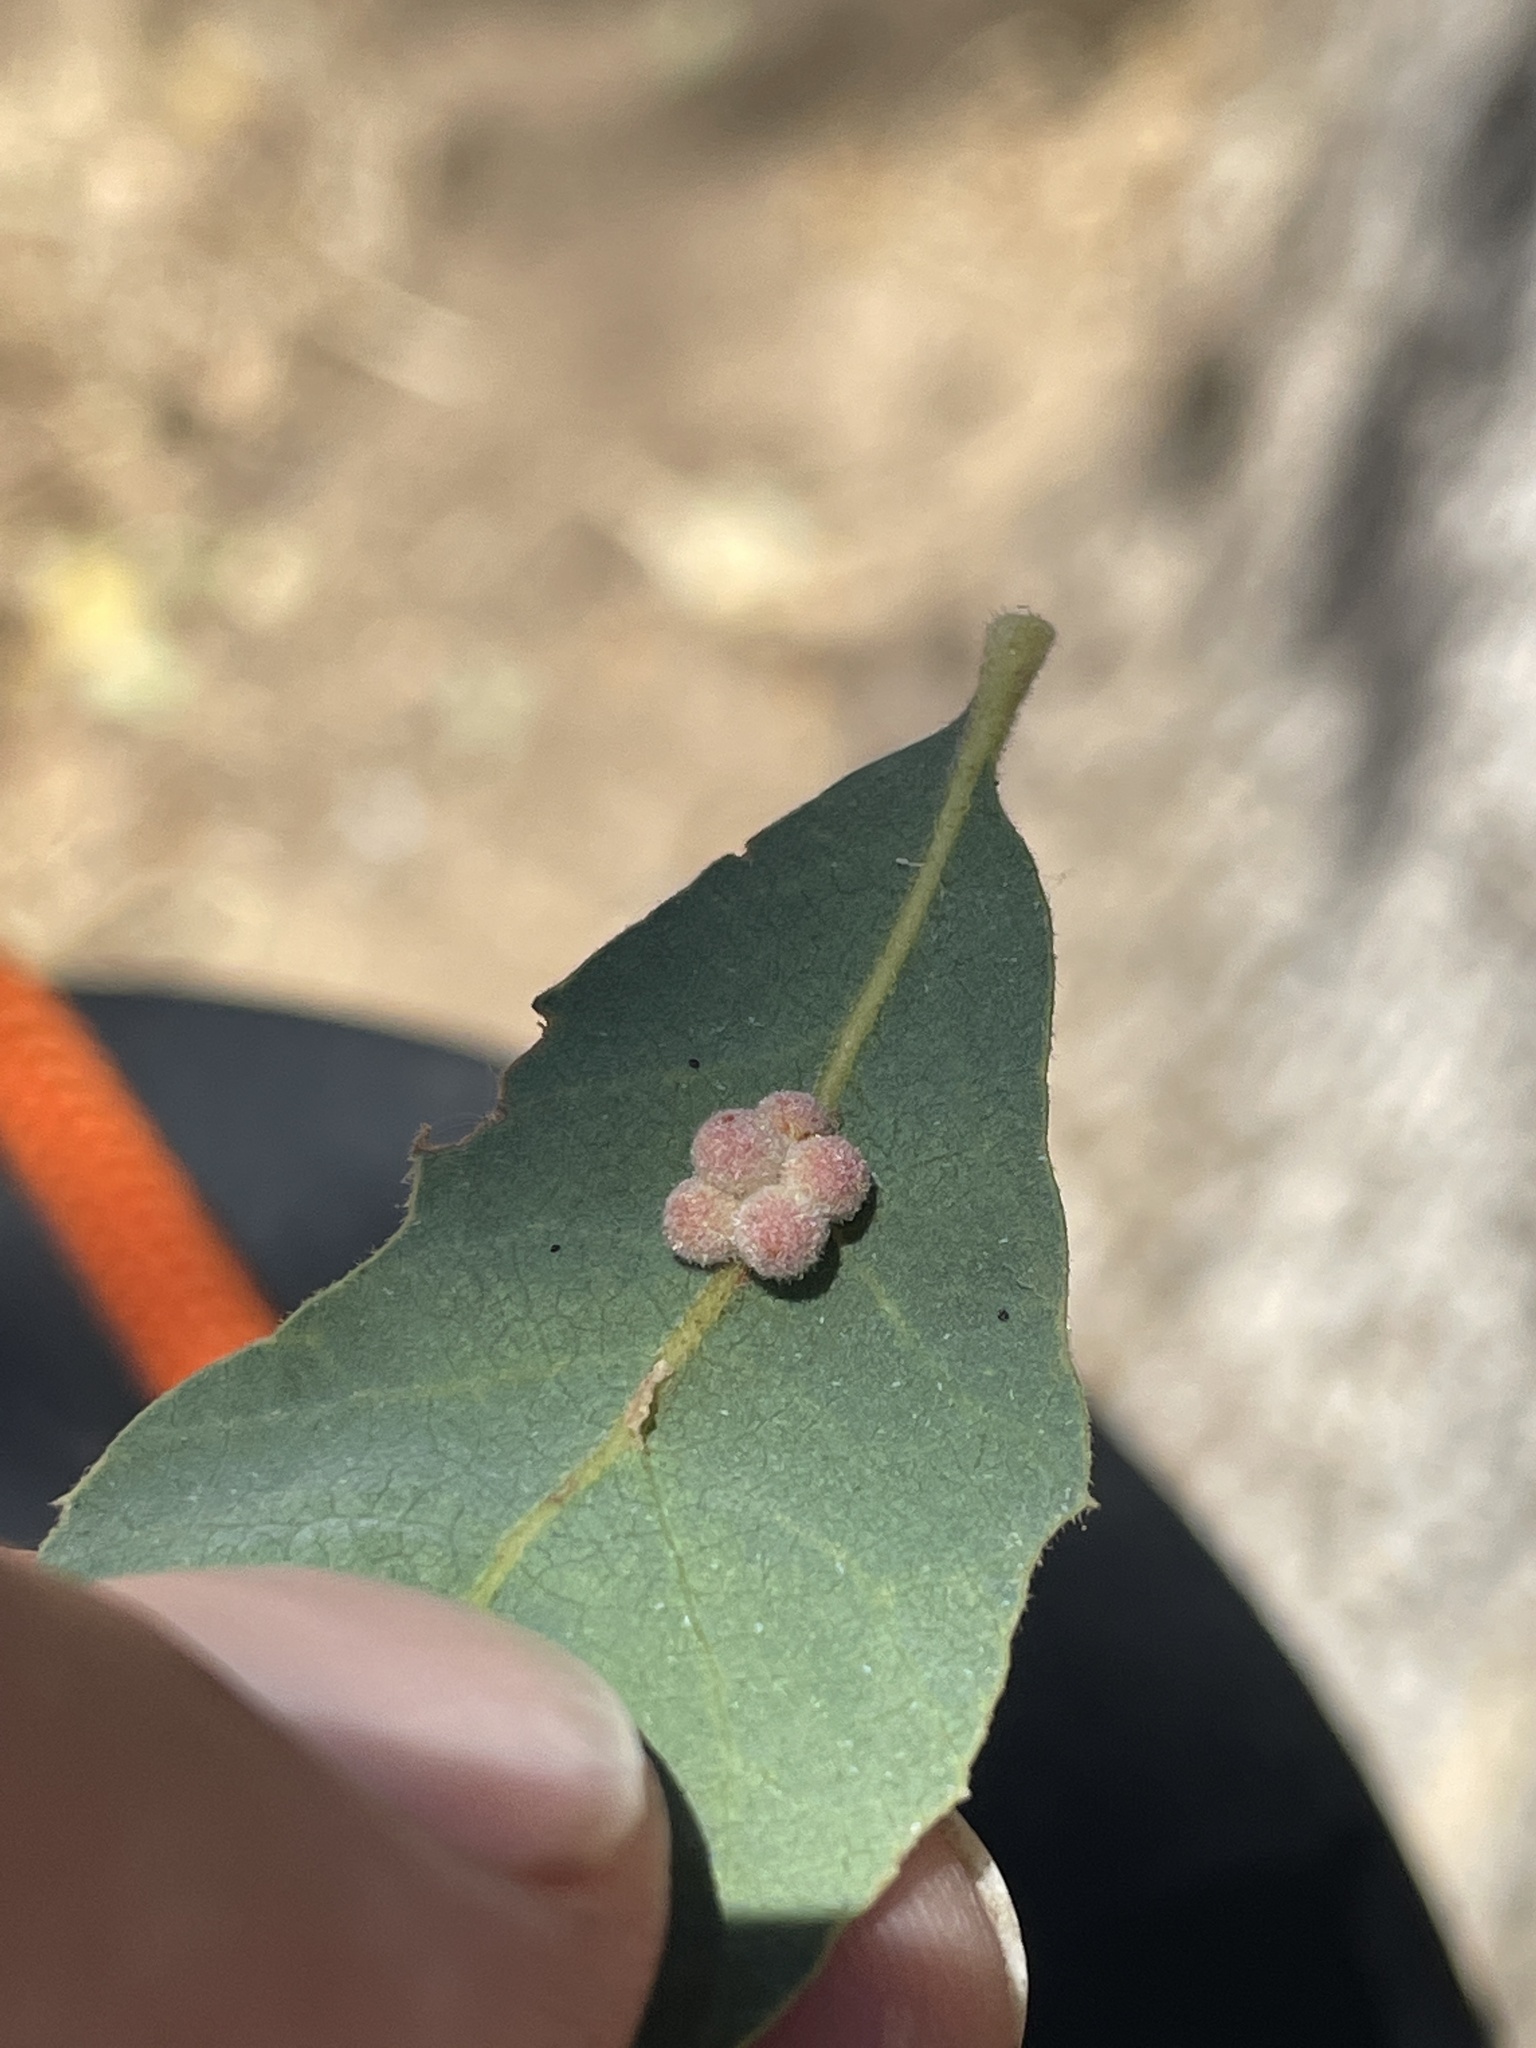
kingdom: Animalia
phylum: Arthropoda
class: Insecta
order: Hymenoptera
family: Cynipidae
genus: Andricus
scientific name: Andricus
